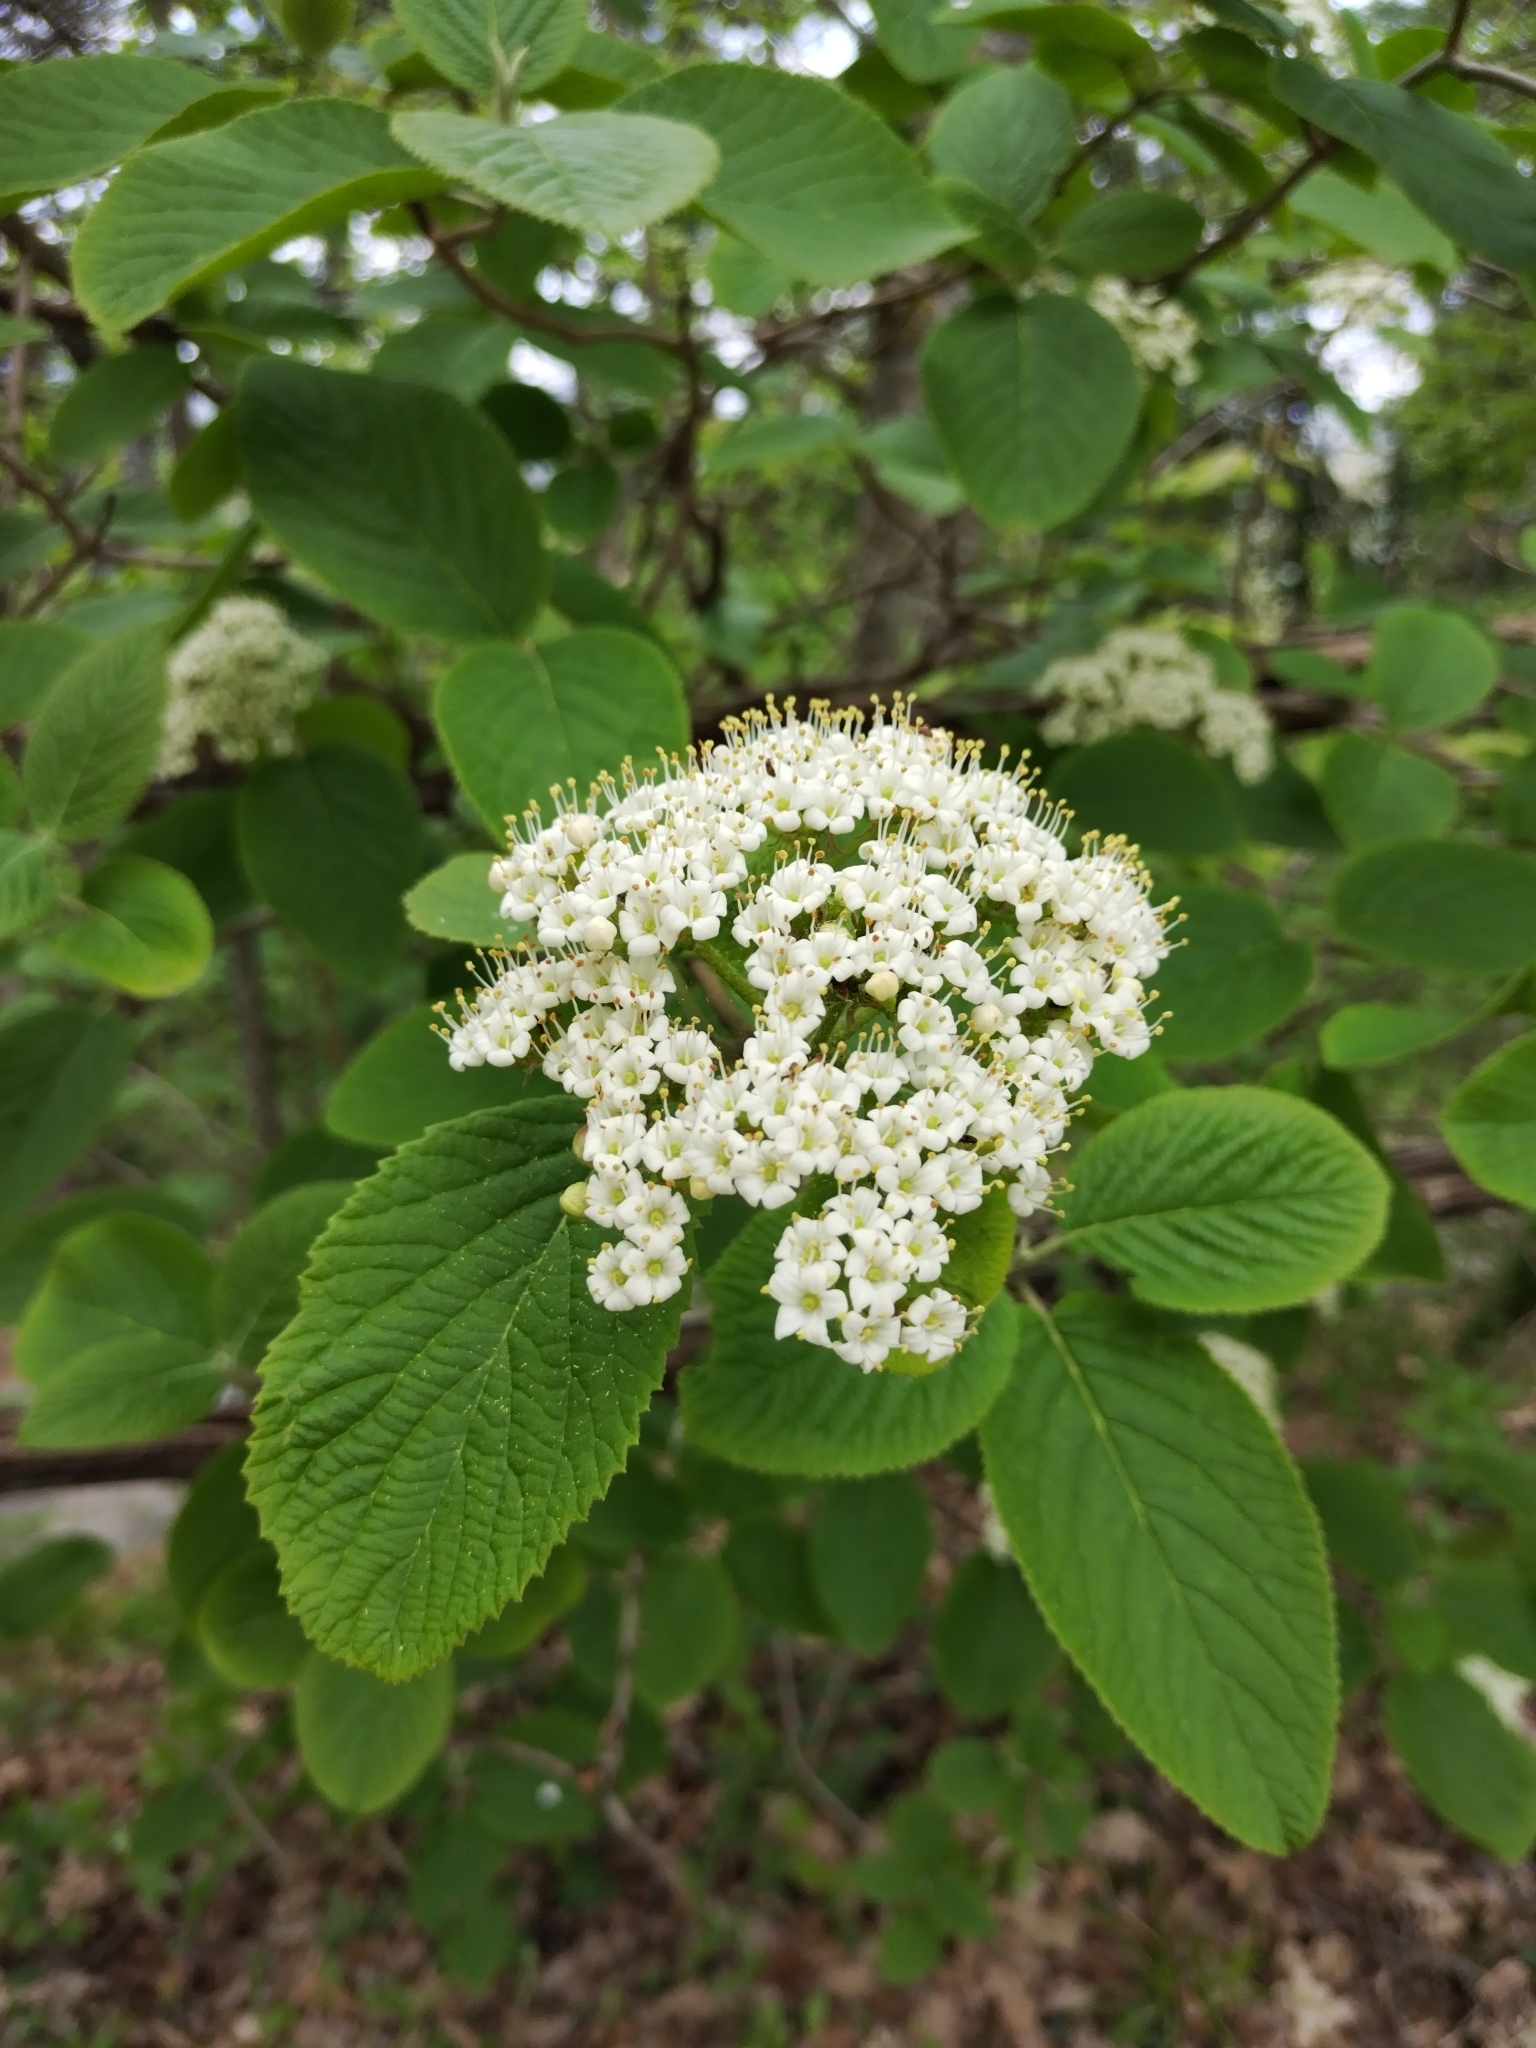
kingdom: Plantae
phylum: Tracheophyta
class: Magnoliopsida
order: Dipsacales
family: Viburnaceae
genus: Viburnum
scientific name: Viburnum lantana
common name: Wayfaring tree
